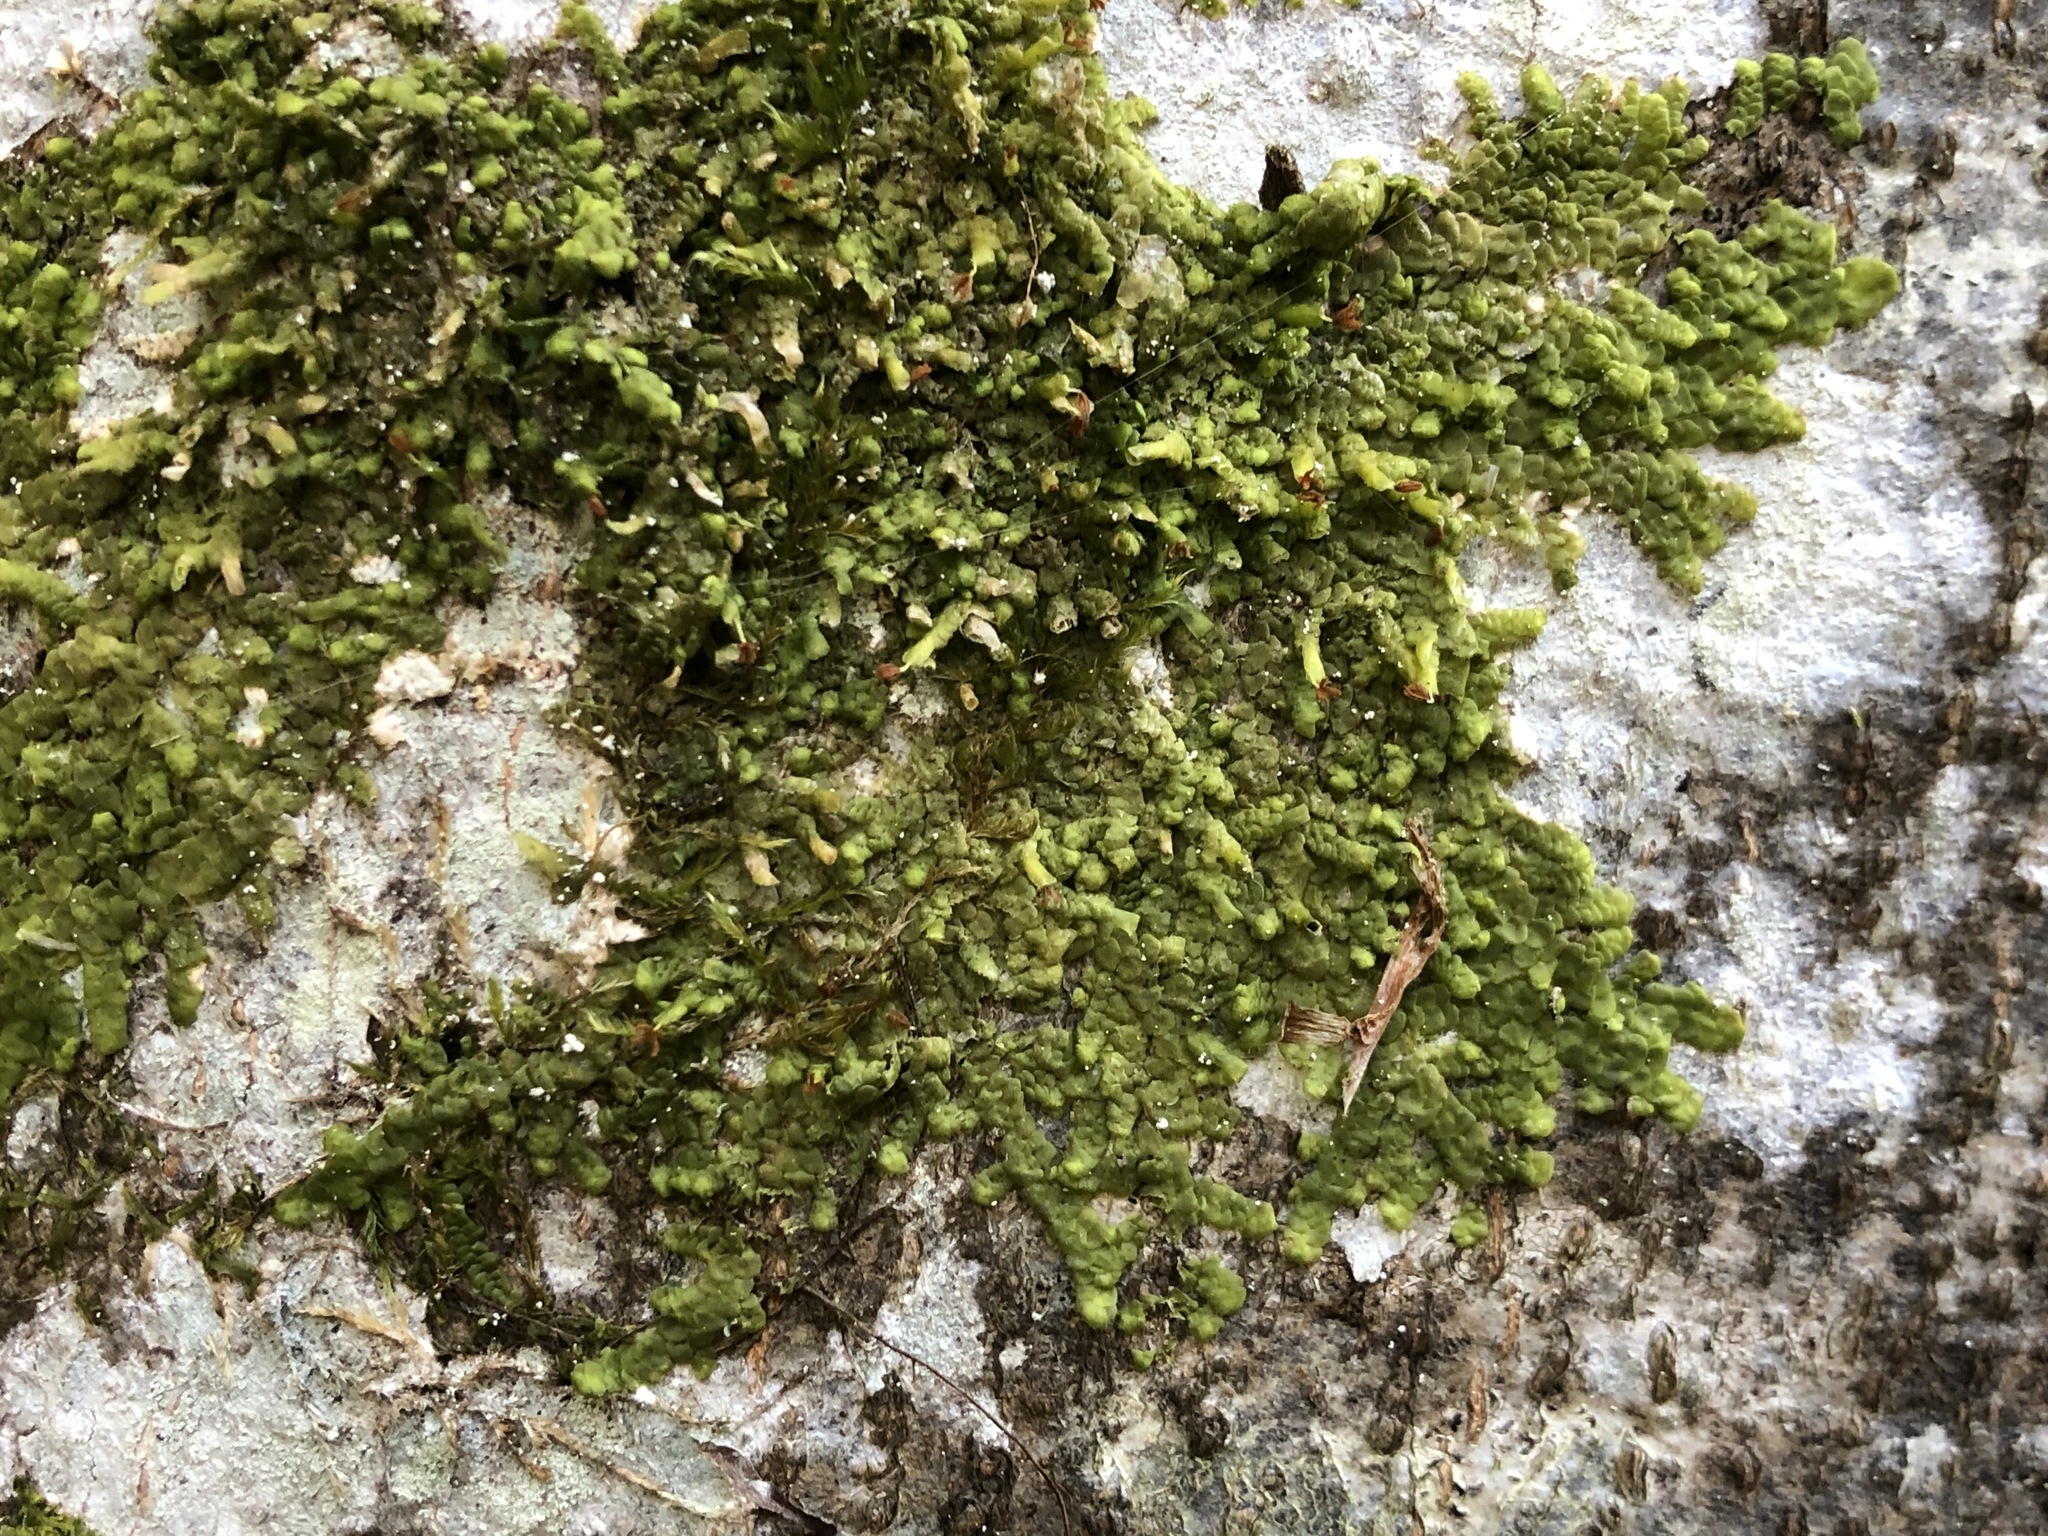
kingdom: Plantae
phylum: Marchantiophyta
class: Jungermanniopsida
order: Porellales
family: Radulaceae
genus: Radula
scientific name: Radula complanata
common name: Flat-leaved scalewort
